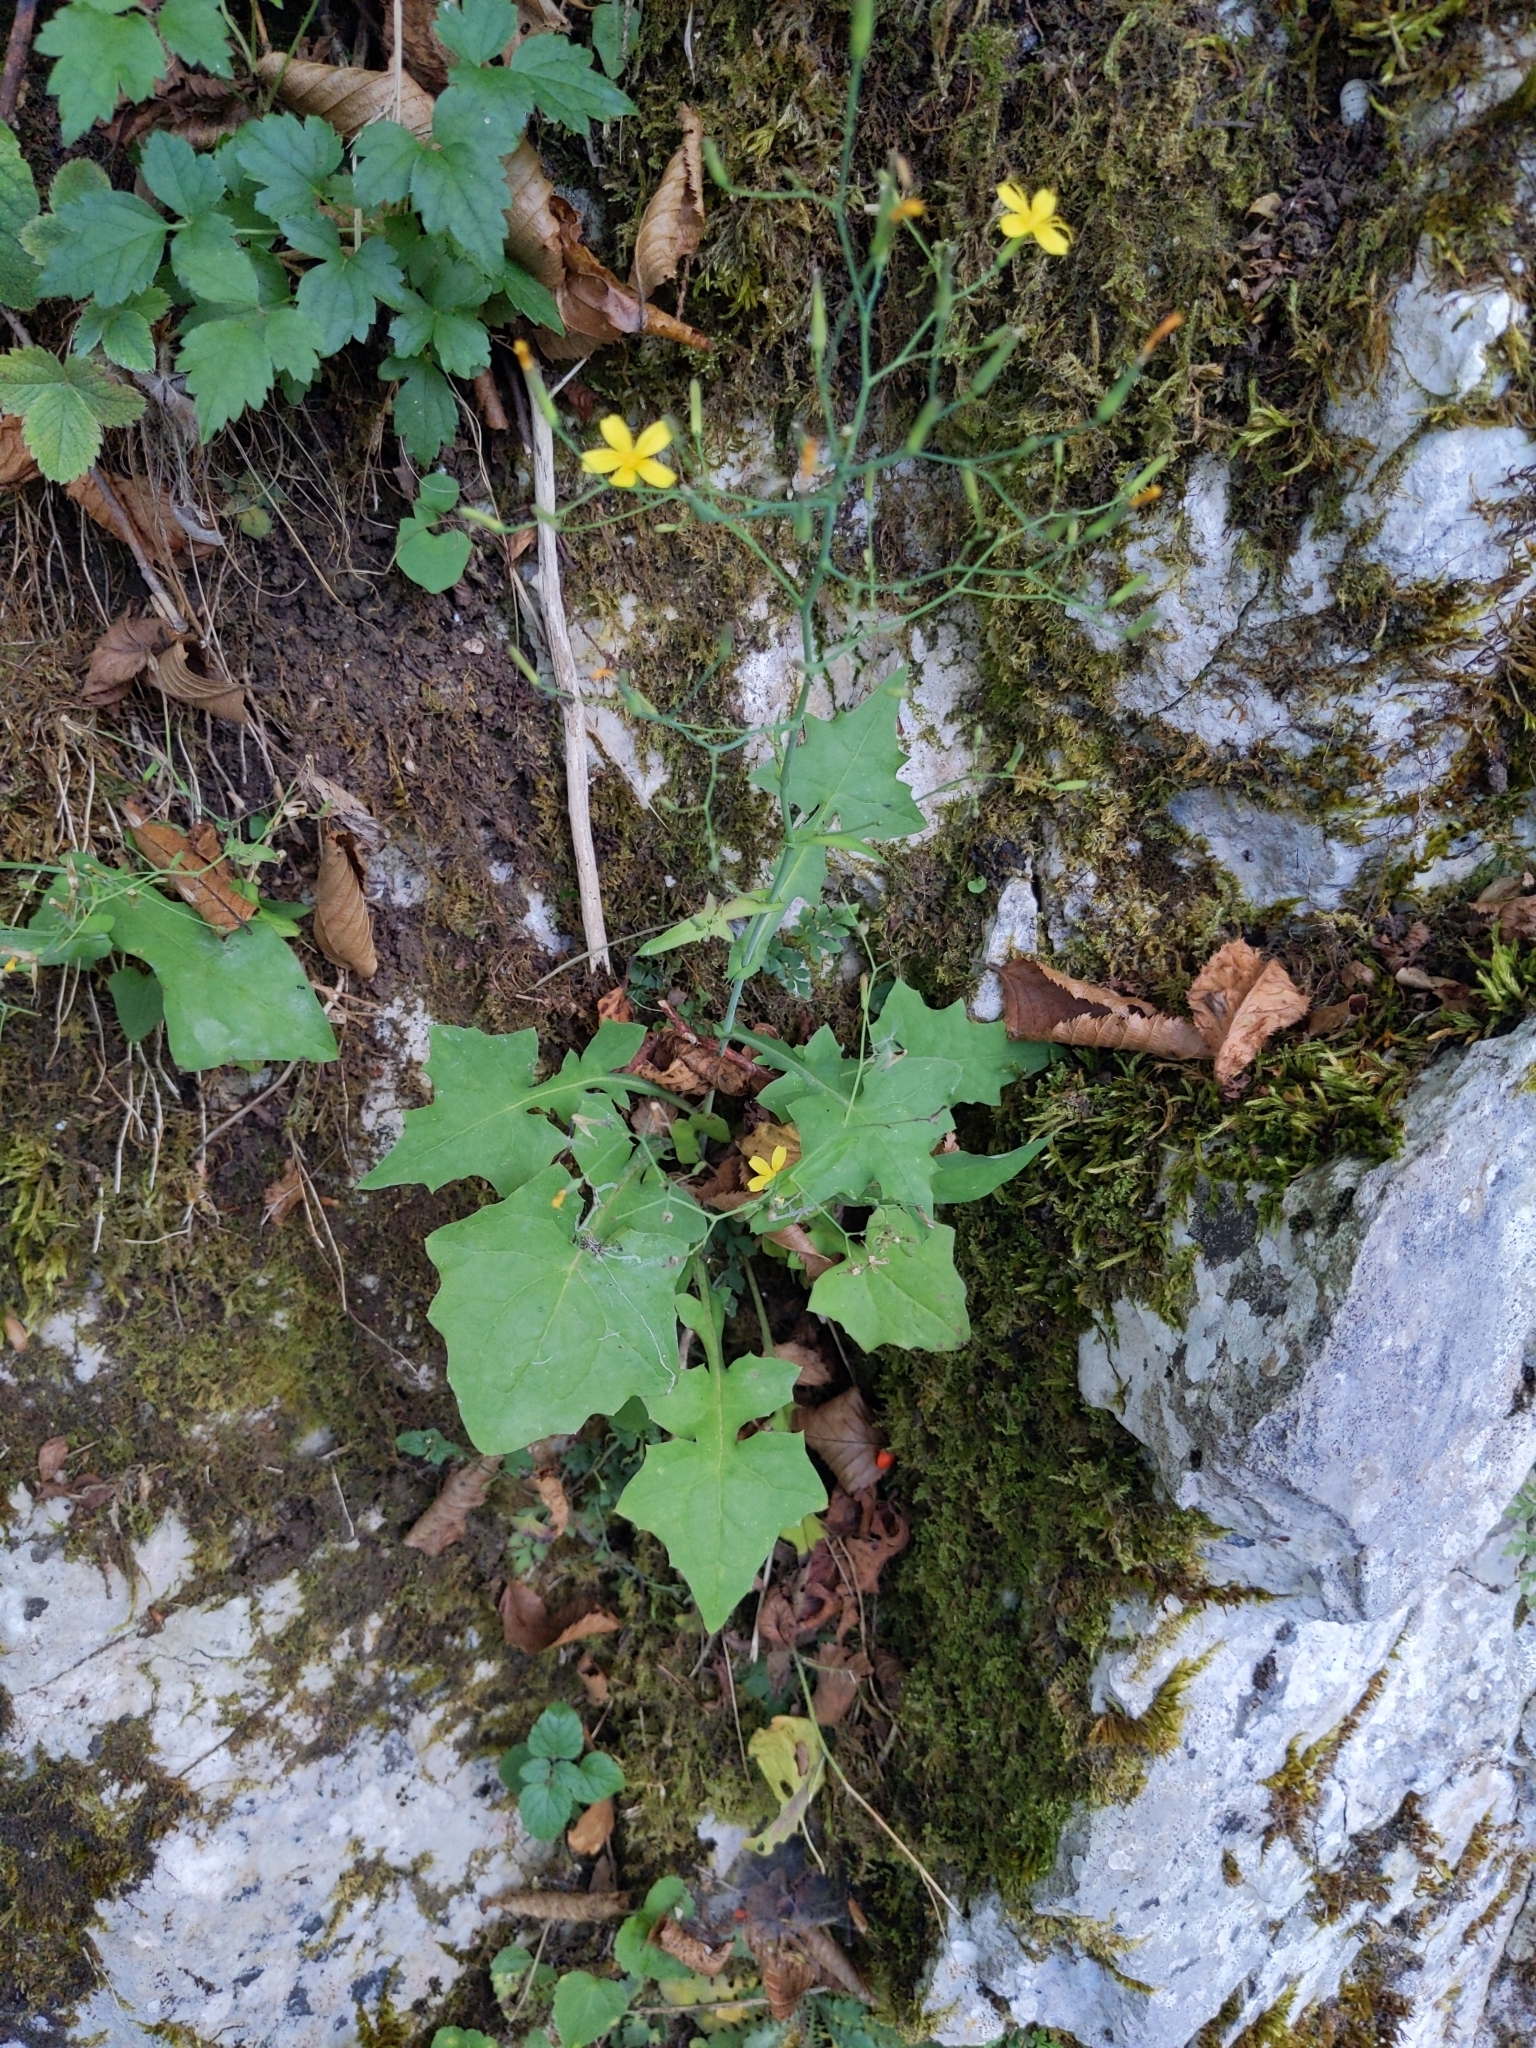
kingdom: Plantae
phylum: Tracheophyta
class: Magnoliopsida
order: Asterales
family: Asteraceae
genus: Mycelis
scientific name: Mycelis muralis
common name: Wall lettuce
